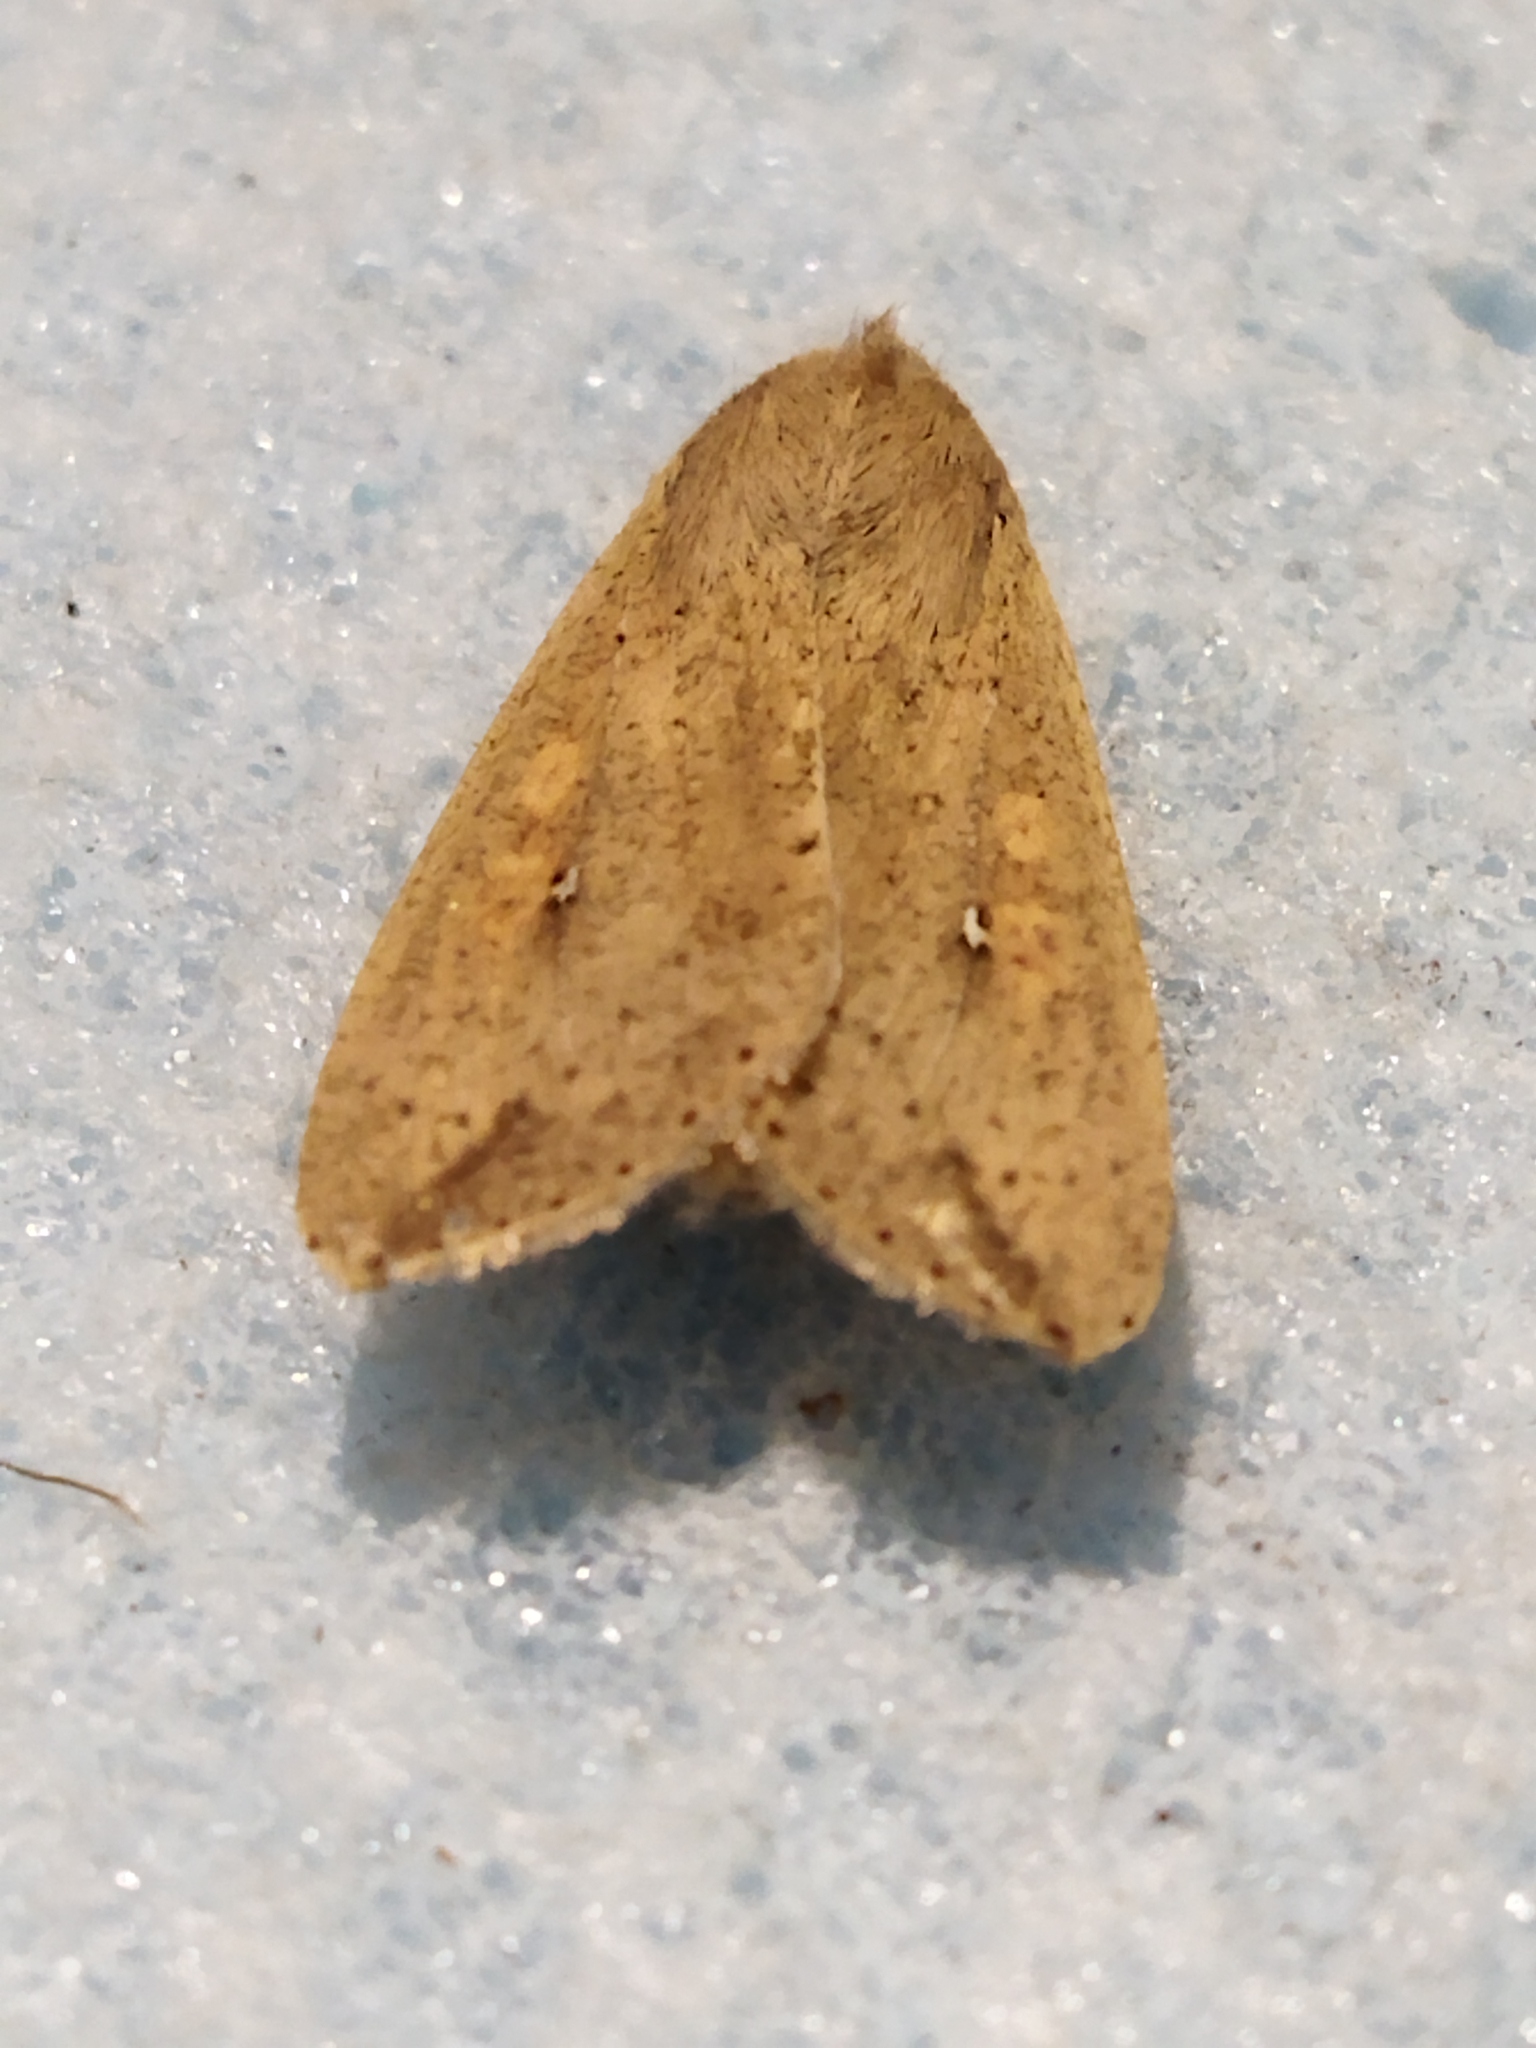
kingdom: Animalia
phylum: Arthropoda
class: Insecta
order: Lepidoptera
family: Noctuidae
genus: Mythimna
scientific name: Mythimna unipuncta
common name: White-speck
